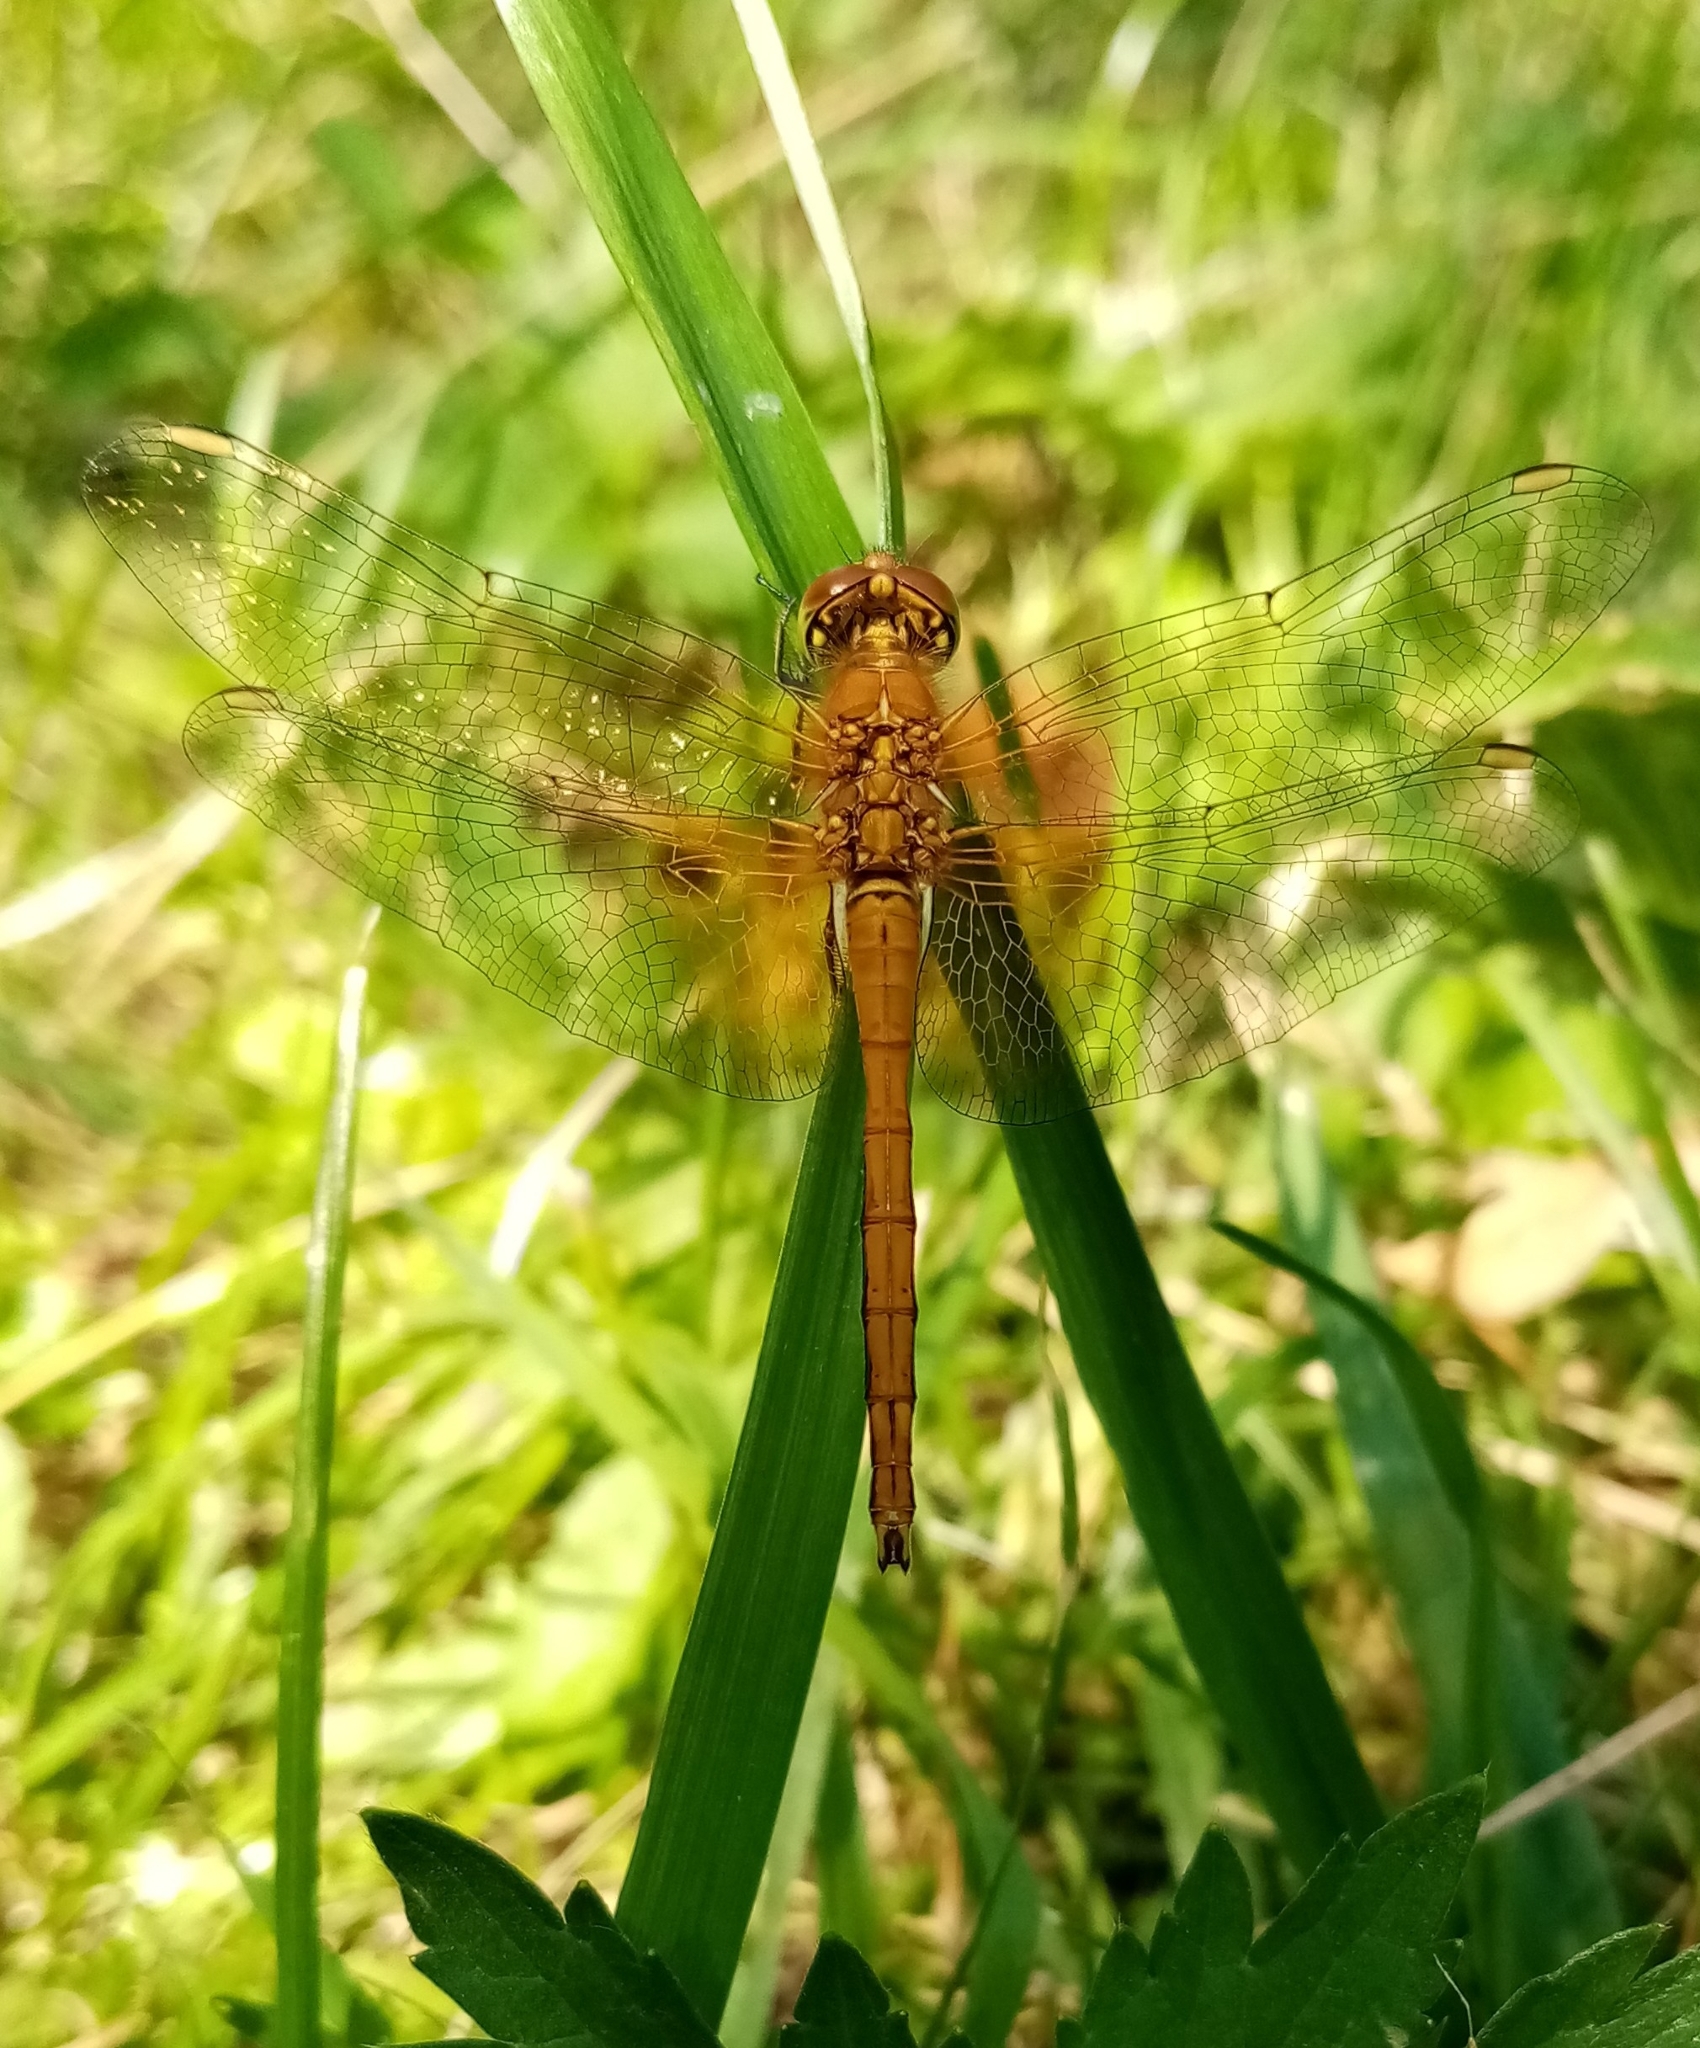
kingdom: Animalia
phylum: Arthropoda
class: Insecta
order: Odonata
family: Libellulidae
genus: Sympetrum
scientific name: Sympetrum flaveolum
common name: Yellow-winged darter
